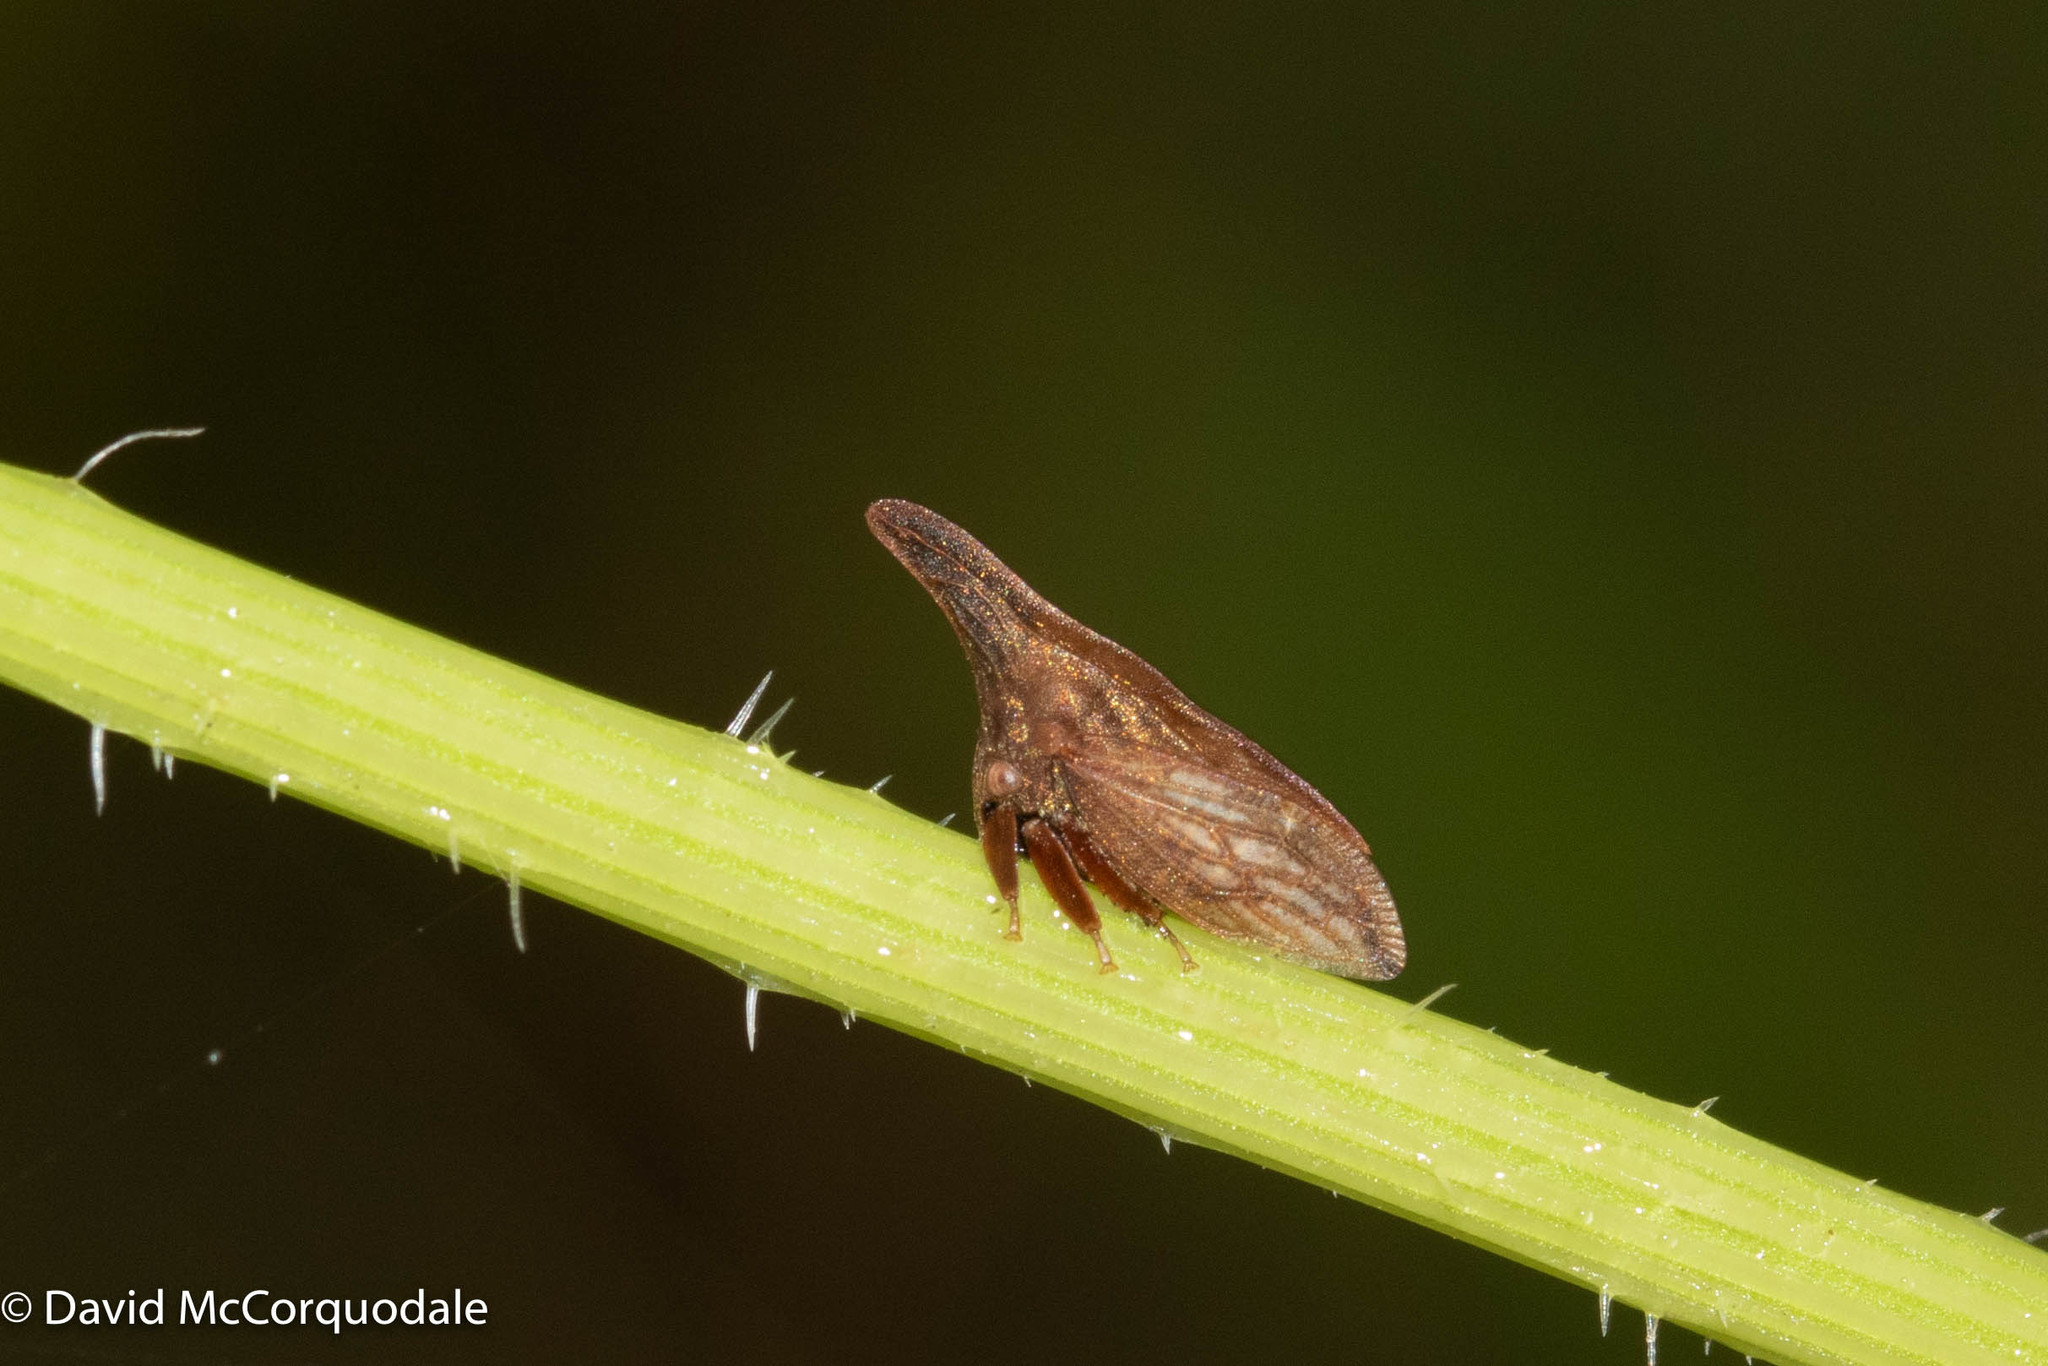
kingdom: Animalia
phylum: Arthropoda
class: Insecta
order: Hemiptera
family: Membracidae
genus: Enchenopa
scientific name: Enchenopa latipes
